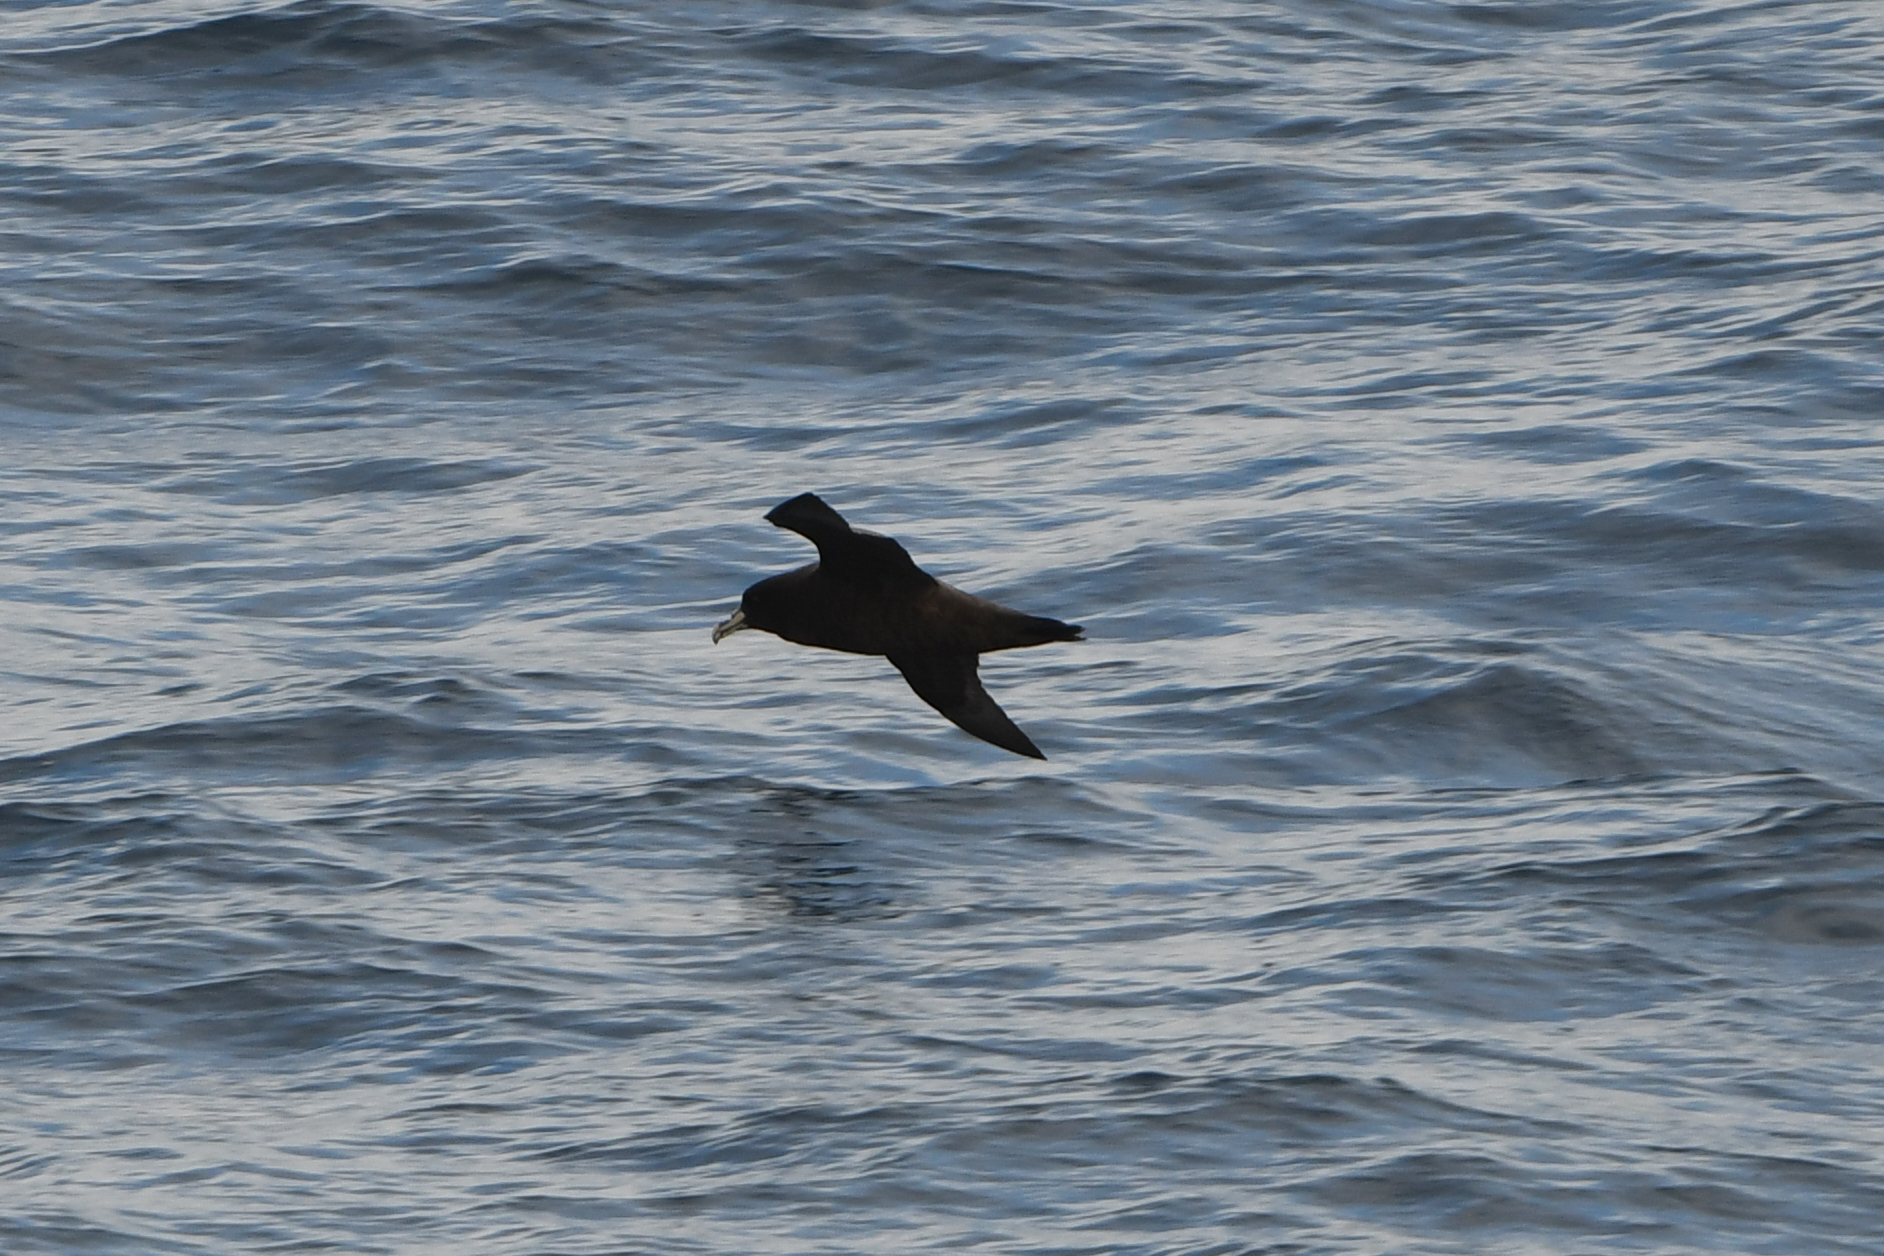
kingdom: Animalia
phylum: Chordata
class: Aves
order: Procellariiformes
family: Procellariidae
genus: Procellaria
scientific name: Procellaria aequinoctialis
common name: White-chinned petrel
